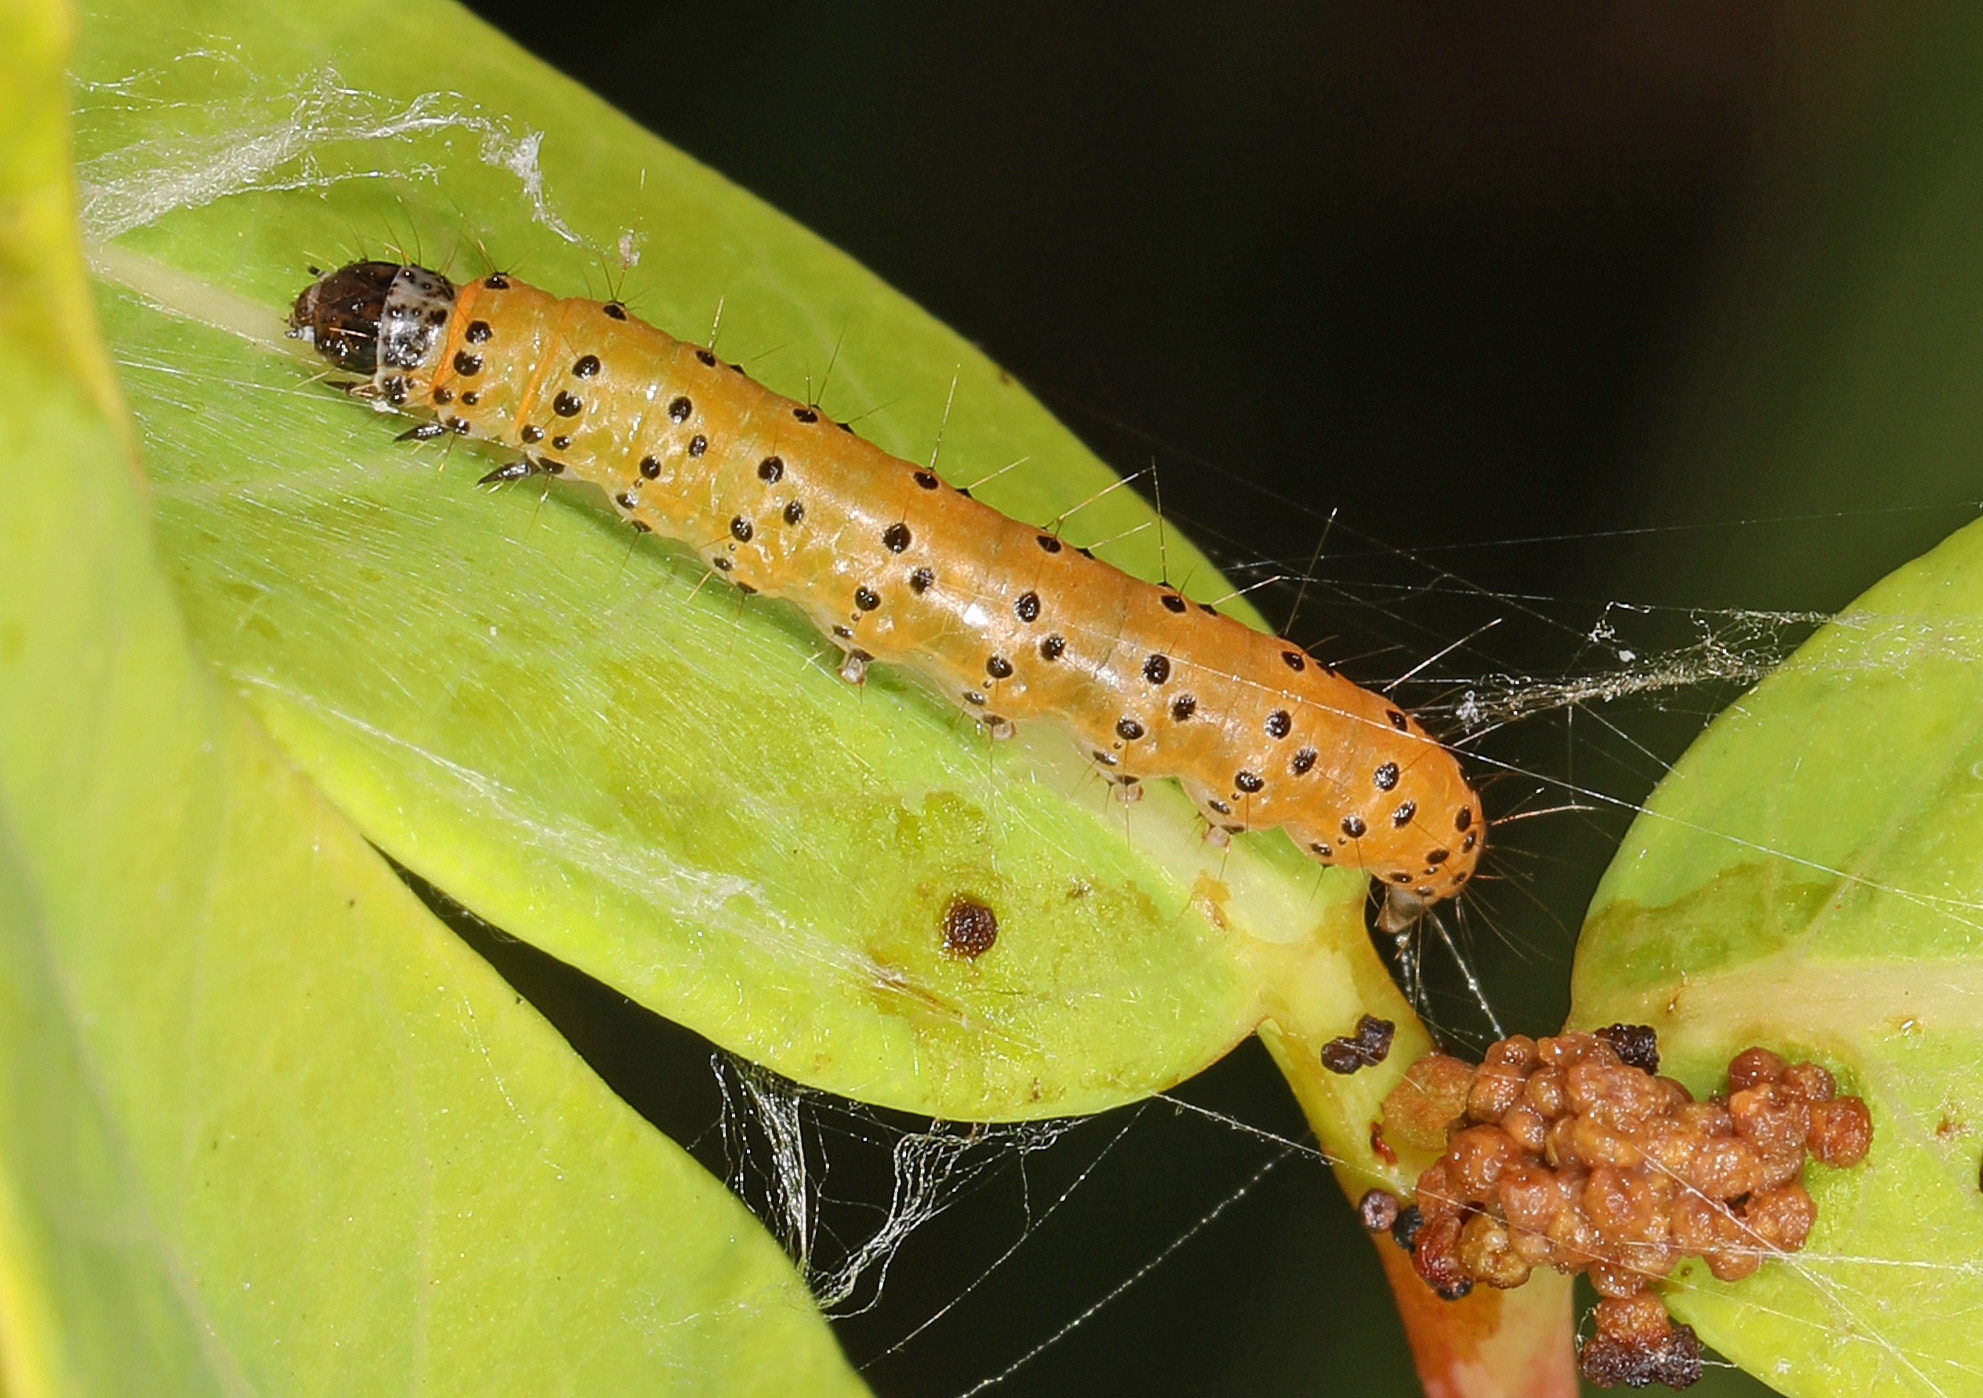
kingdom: Animalia
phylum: Arthropoda
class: Insecta
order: Lepidoptera
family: Crambidae
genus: Saucrobotys
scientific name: Saucrobotys futilalis
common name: Dogbane saucrobotys moth
